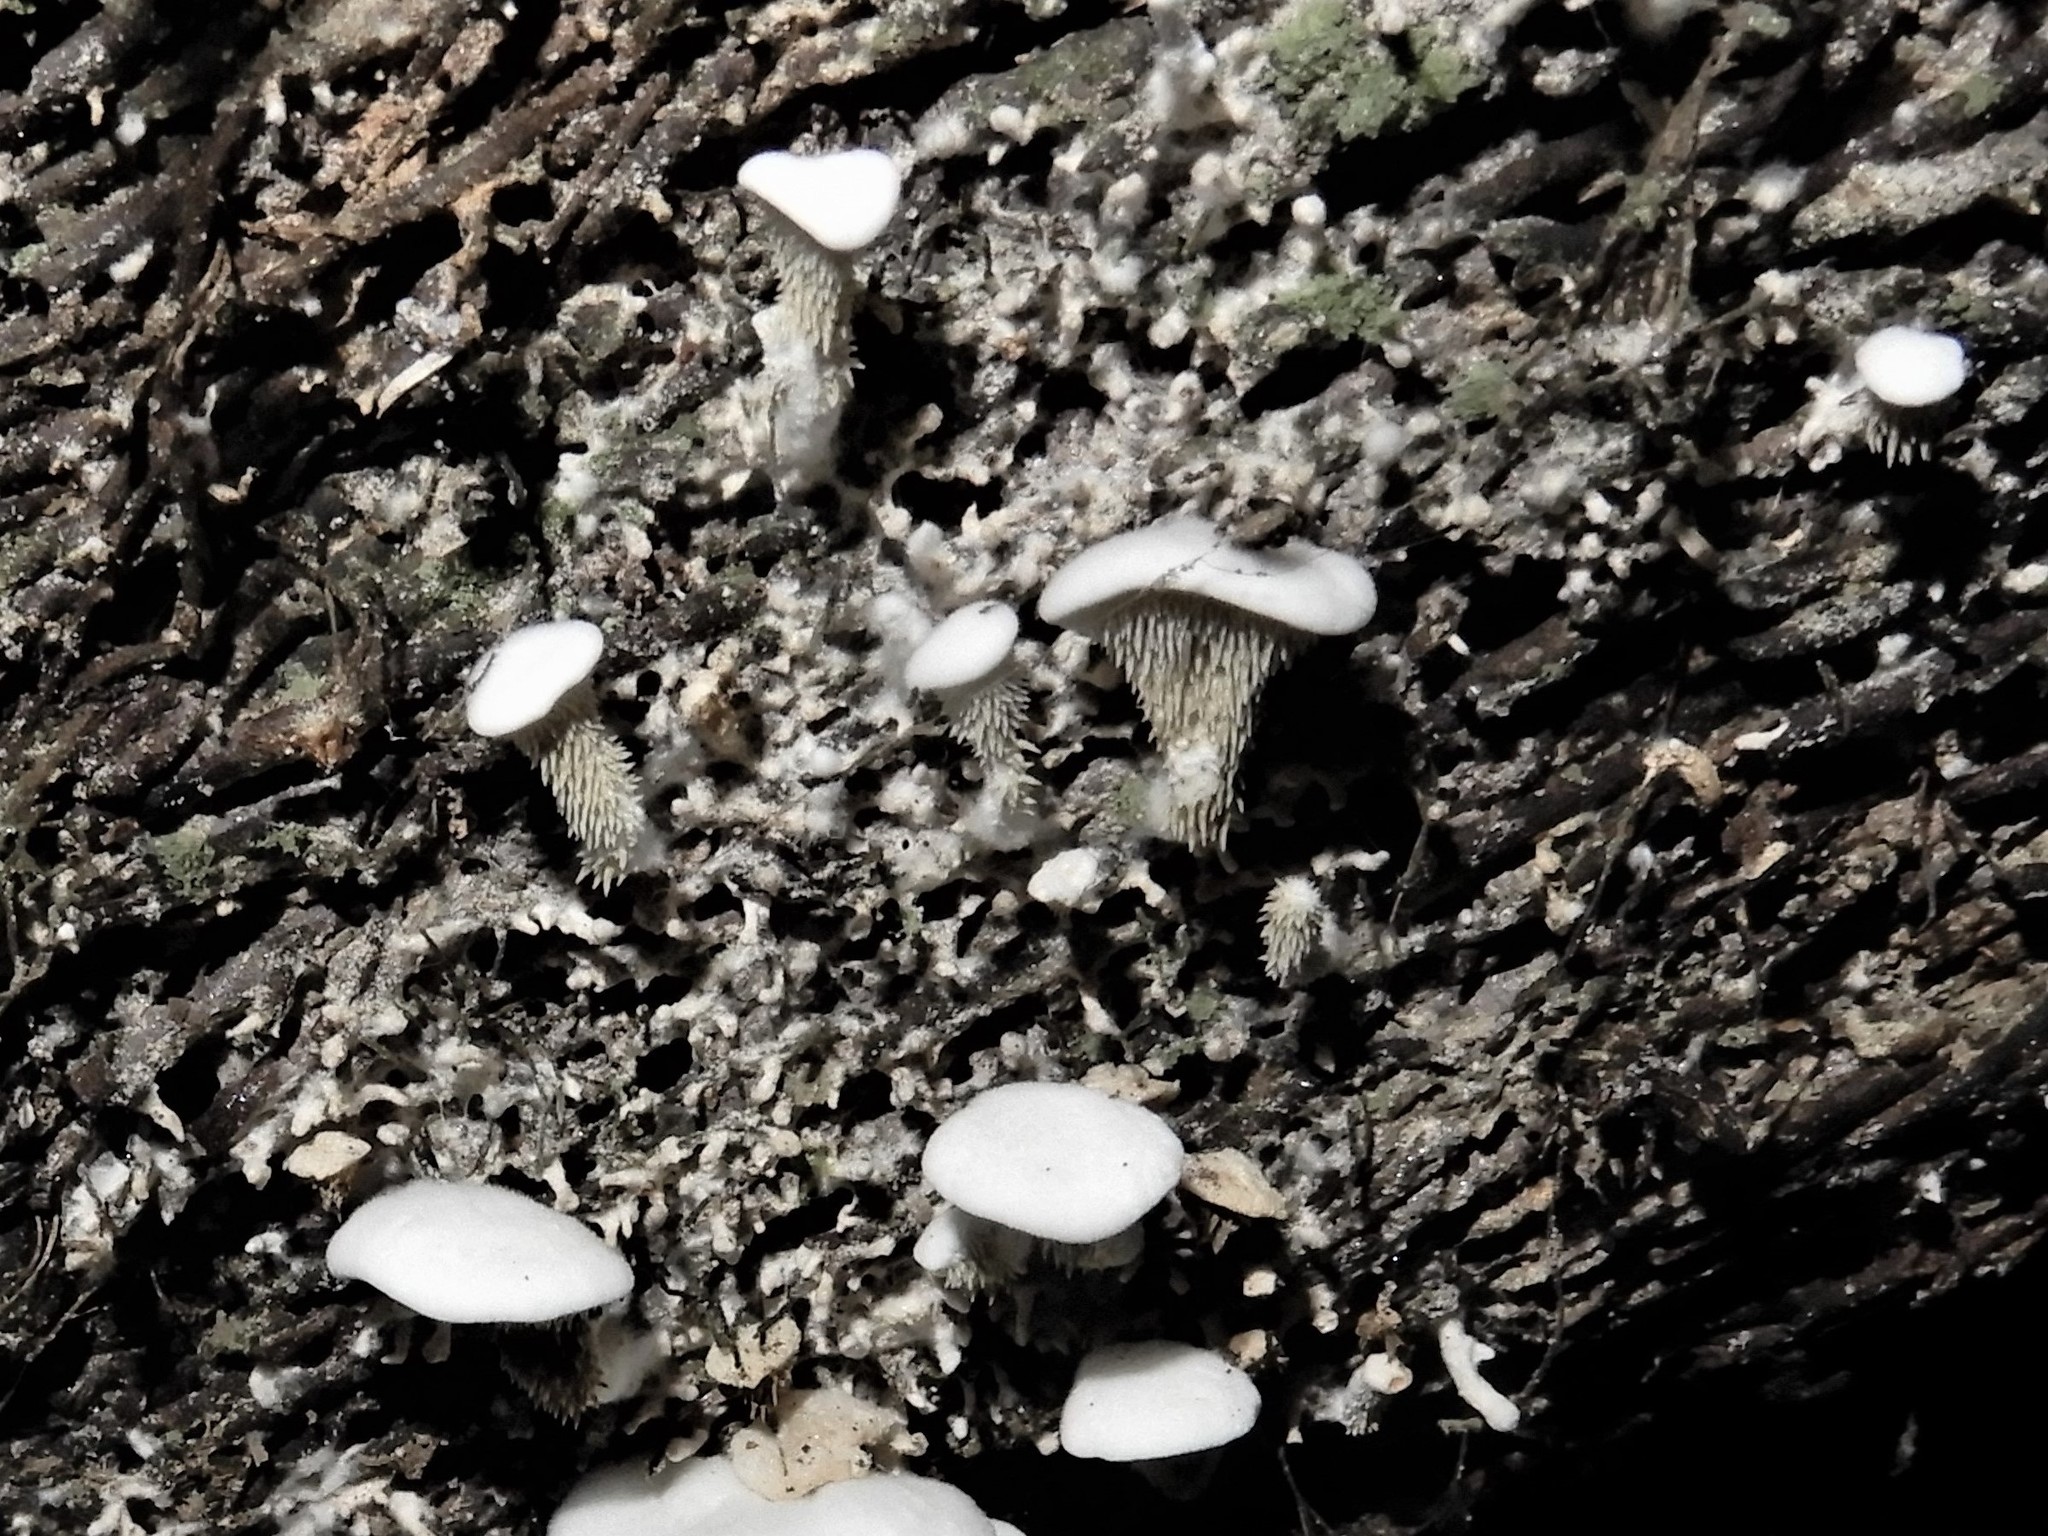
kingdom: Fungi
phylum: Basidiomycota
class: Agaricomycetes
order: Gomphales
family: Clavariadelphaceae
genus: Beenakia
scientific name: Beenakia dacostae
